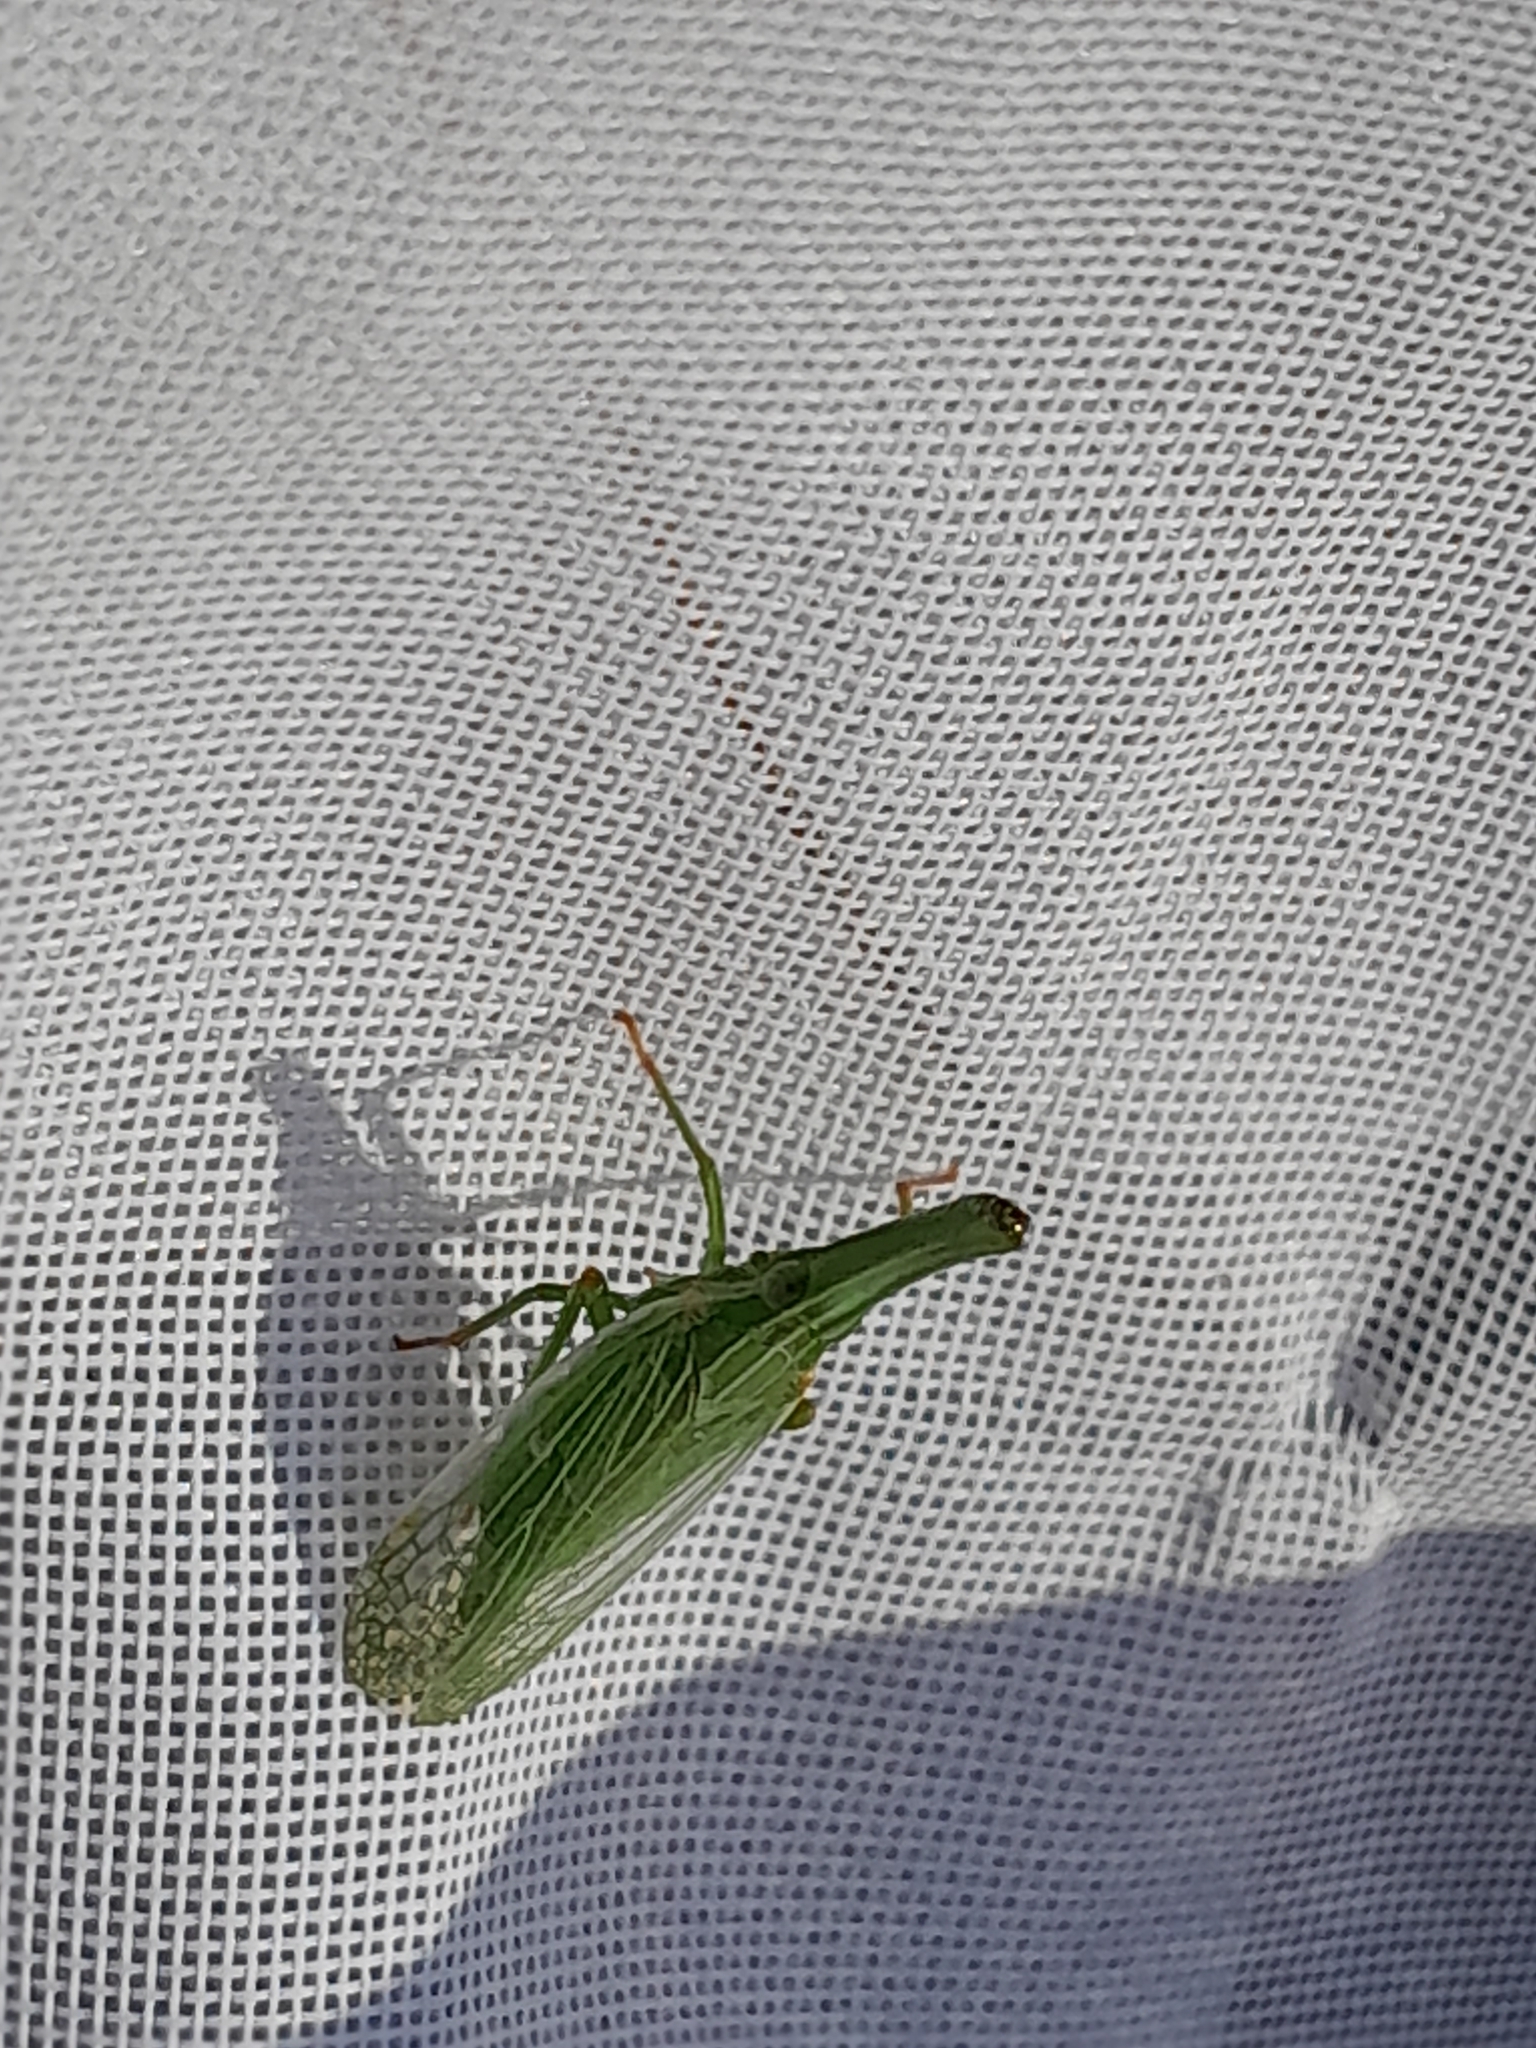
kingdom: Animalia
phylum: Arthropoda
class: Insecta
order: Hemiptera
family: Dictyopharidae
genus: Dictyophara
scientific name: Dictyophara pannonica
